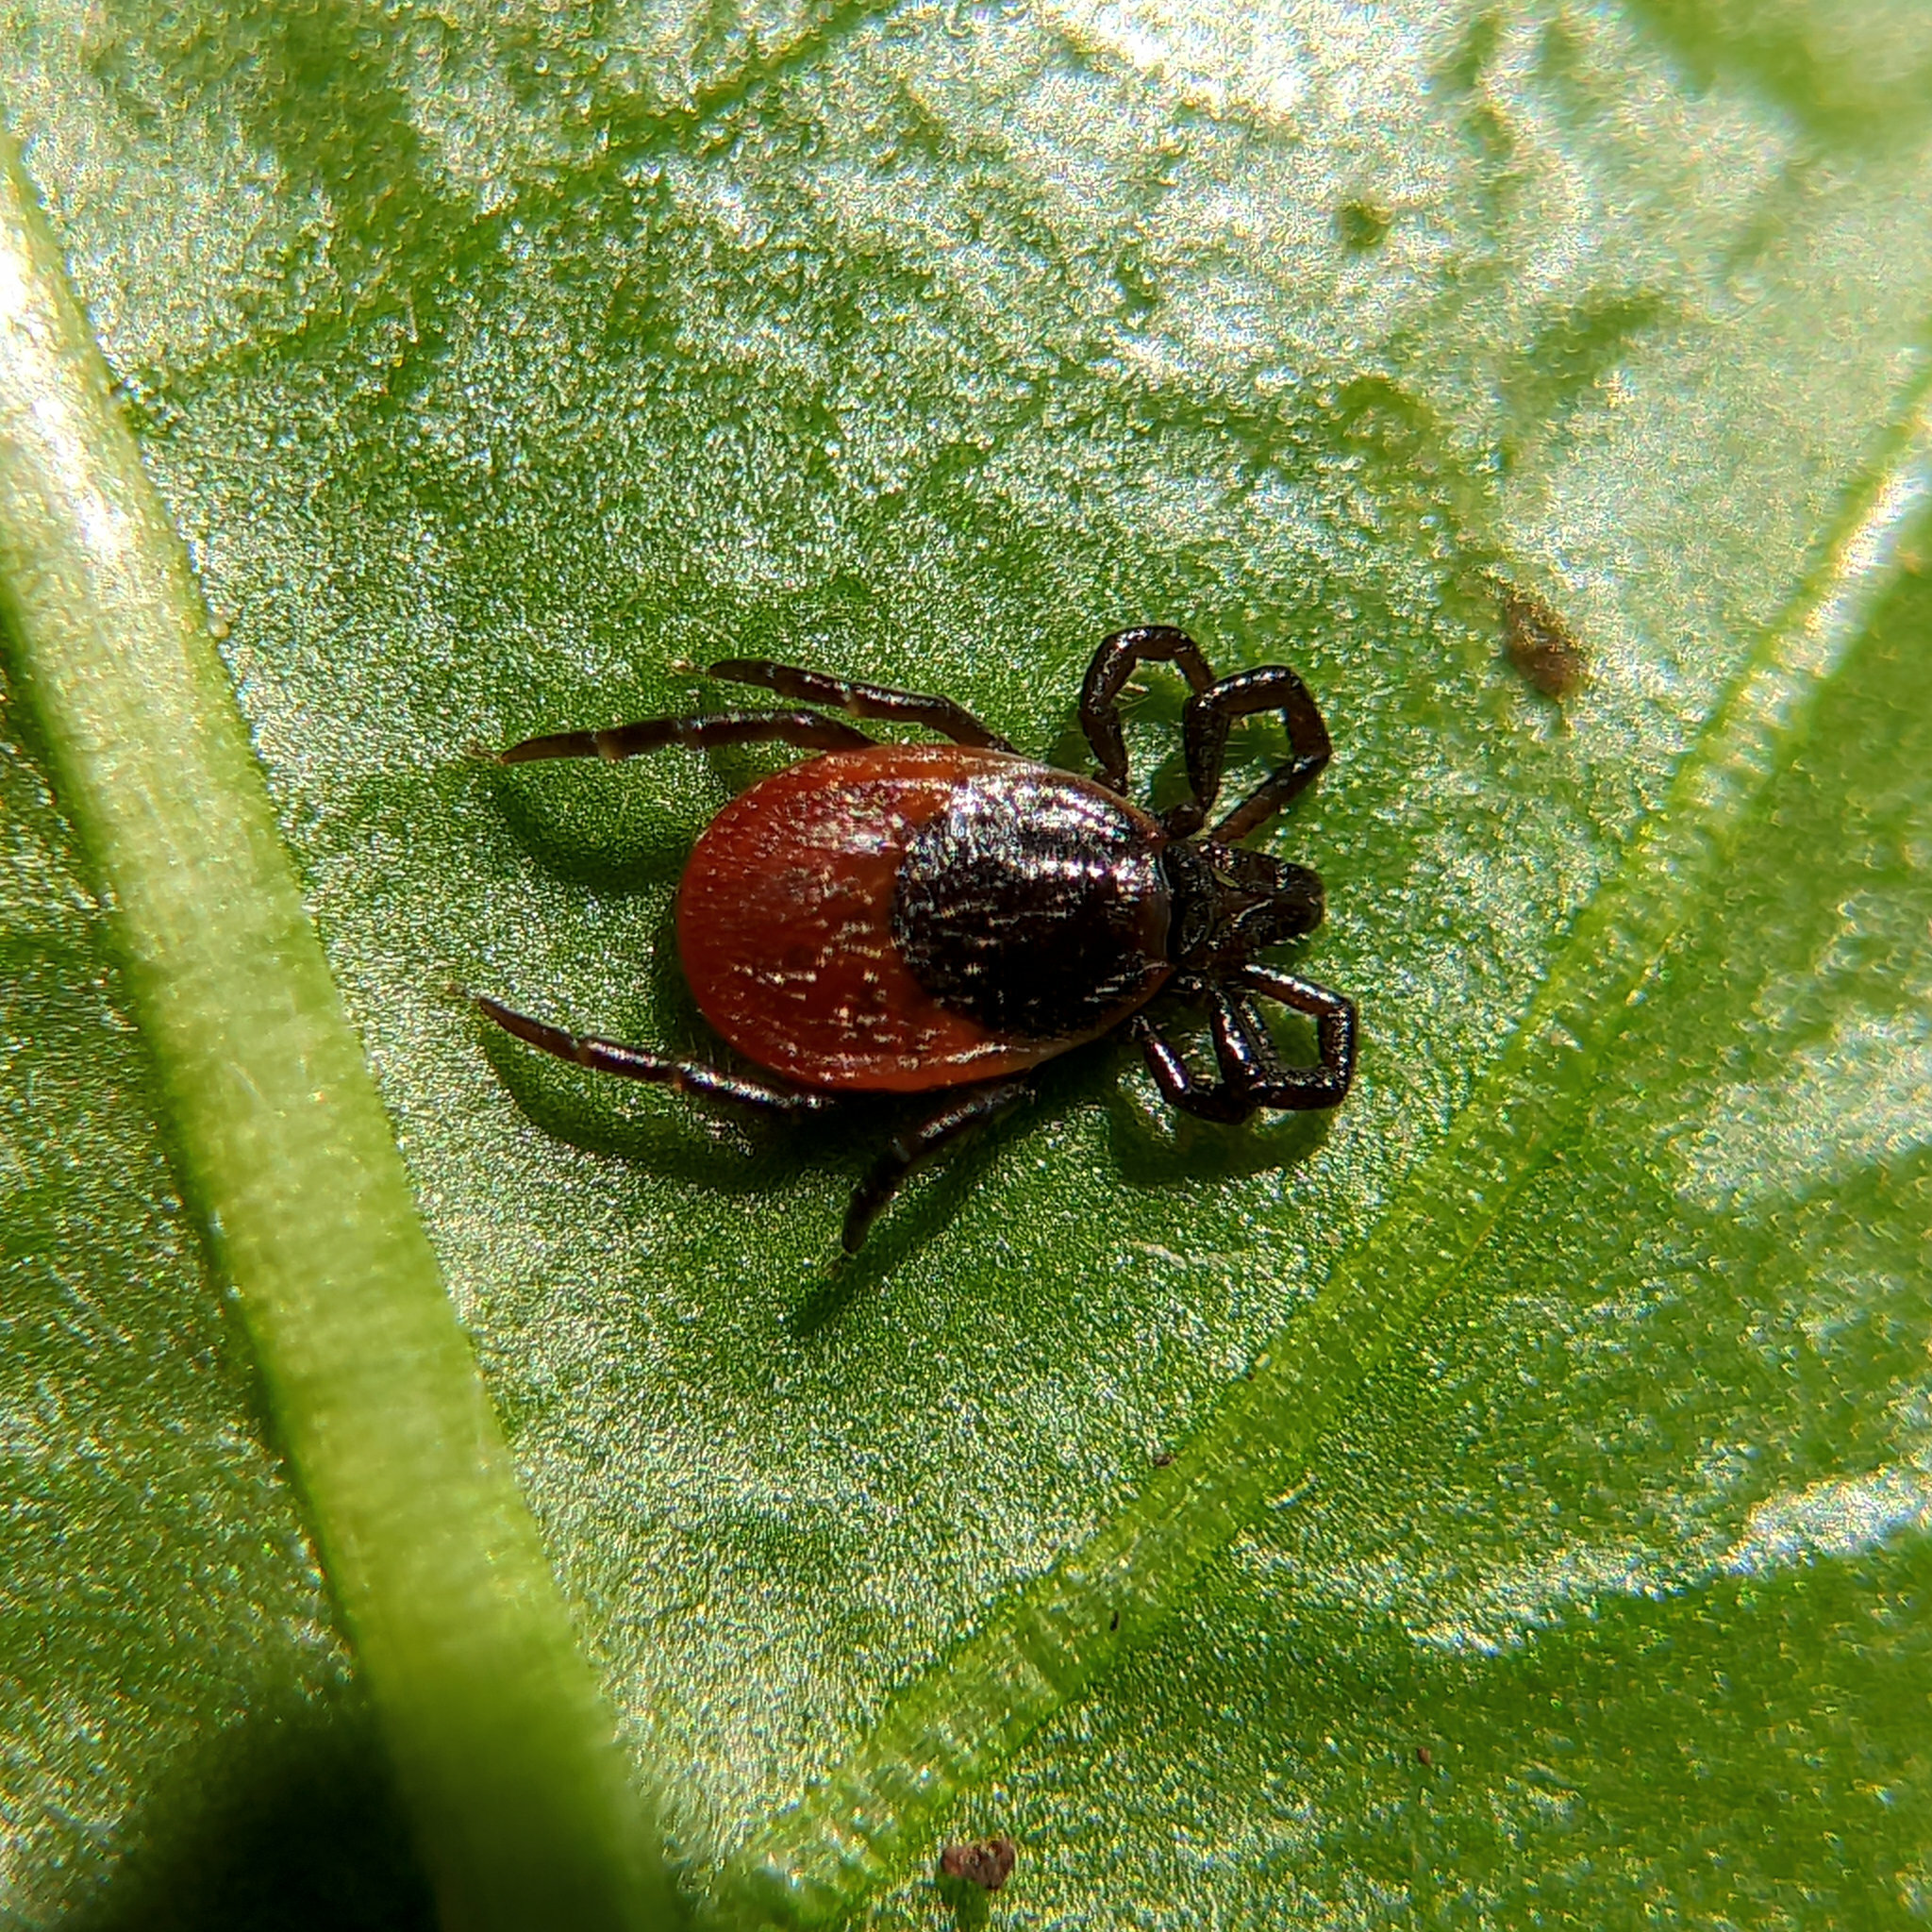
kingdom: Animalia
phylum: Arthropoda
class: Arachnida
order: Ixodida
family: Ixodidae
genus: Ixodes
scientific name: Ixodes
